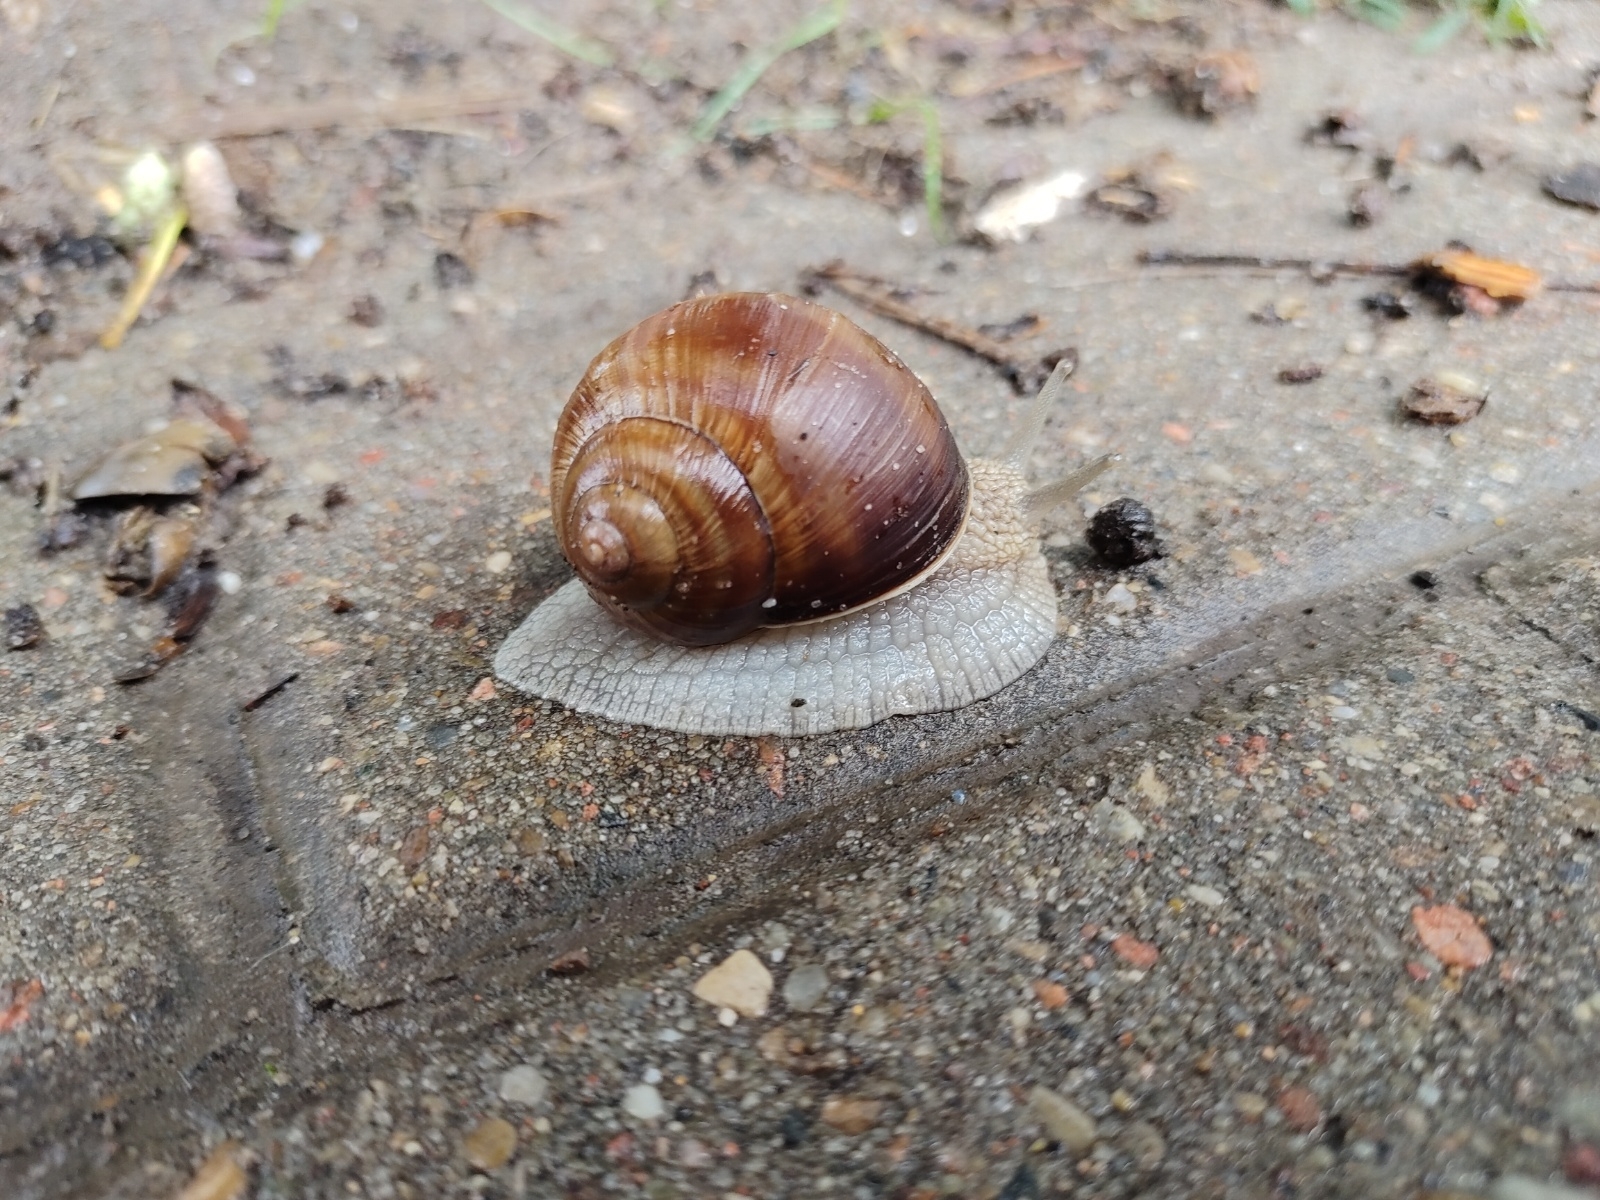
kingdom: Animalia
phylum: Mollusca
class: Gastropoda
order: Stylommatophora
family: Helicidae
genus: Helix
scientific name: Helix pomatia
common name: Roman snail
